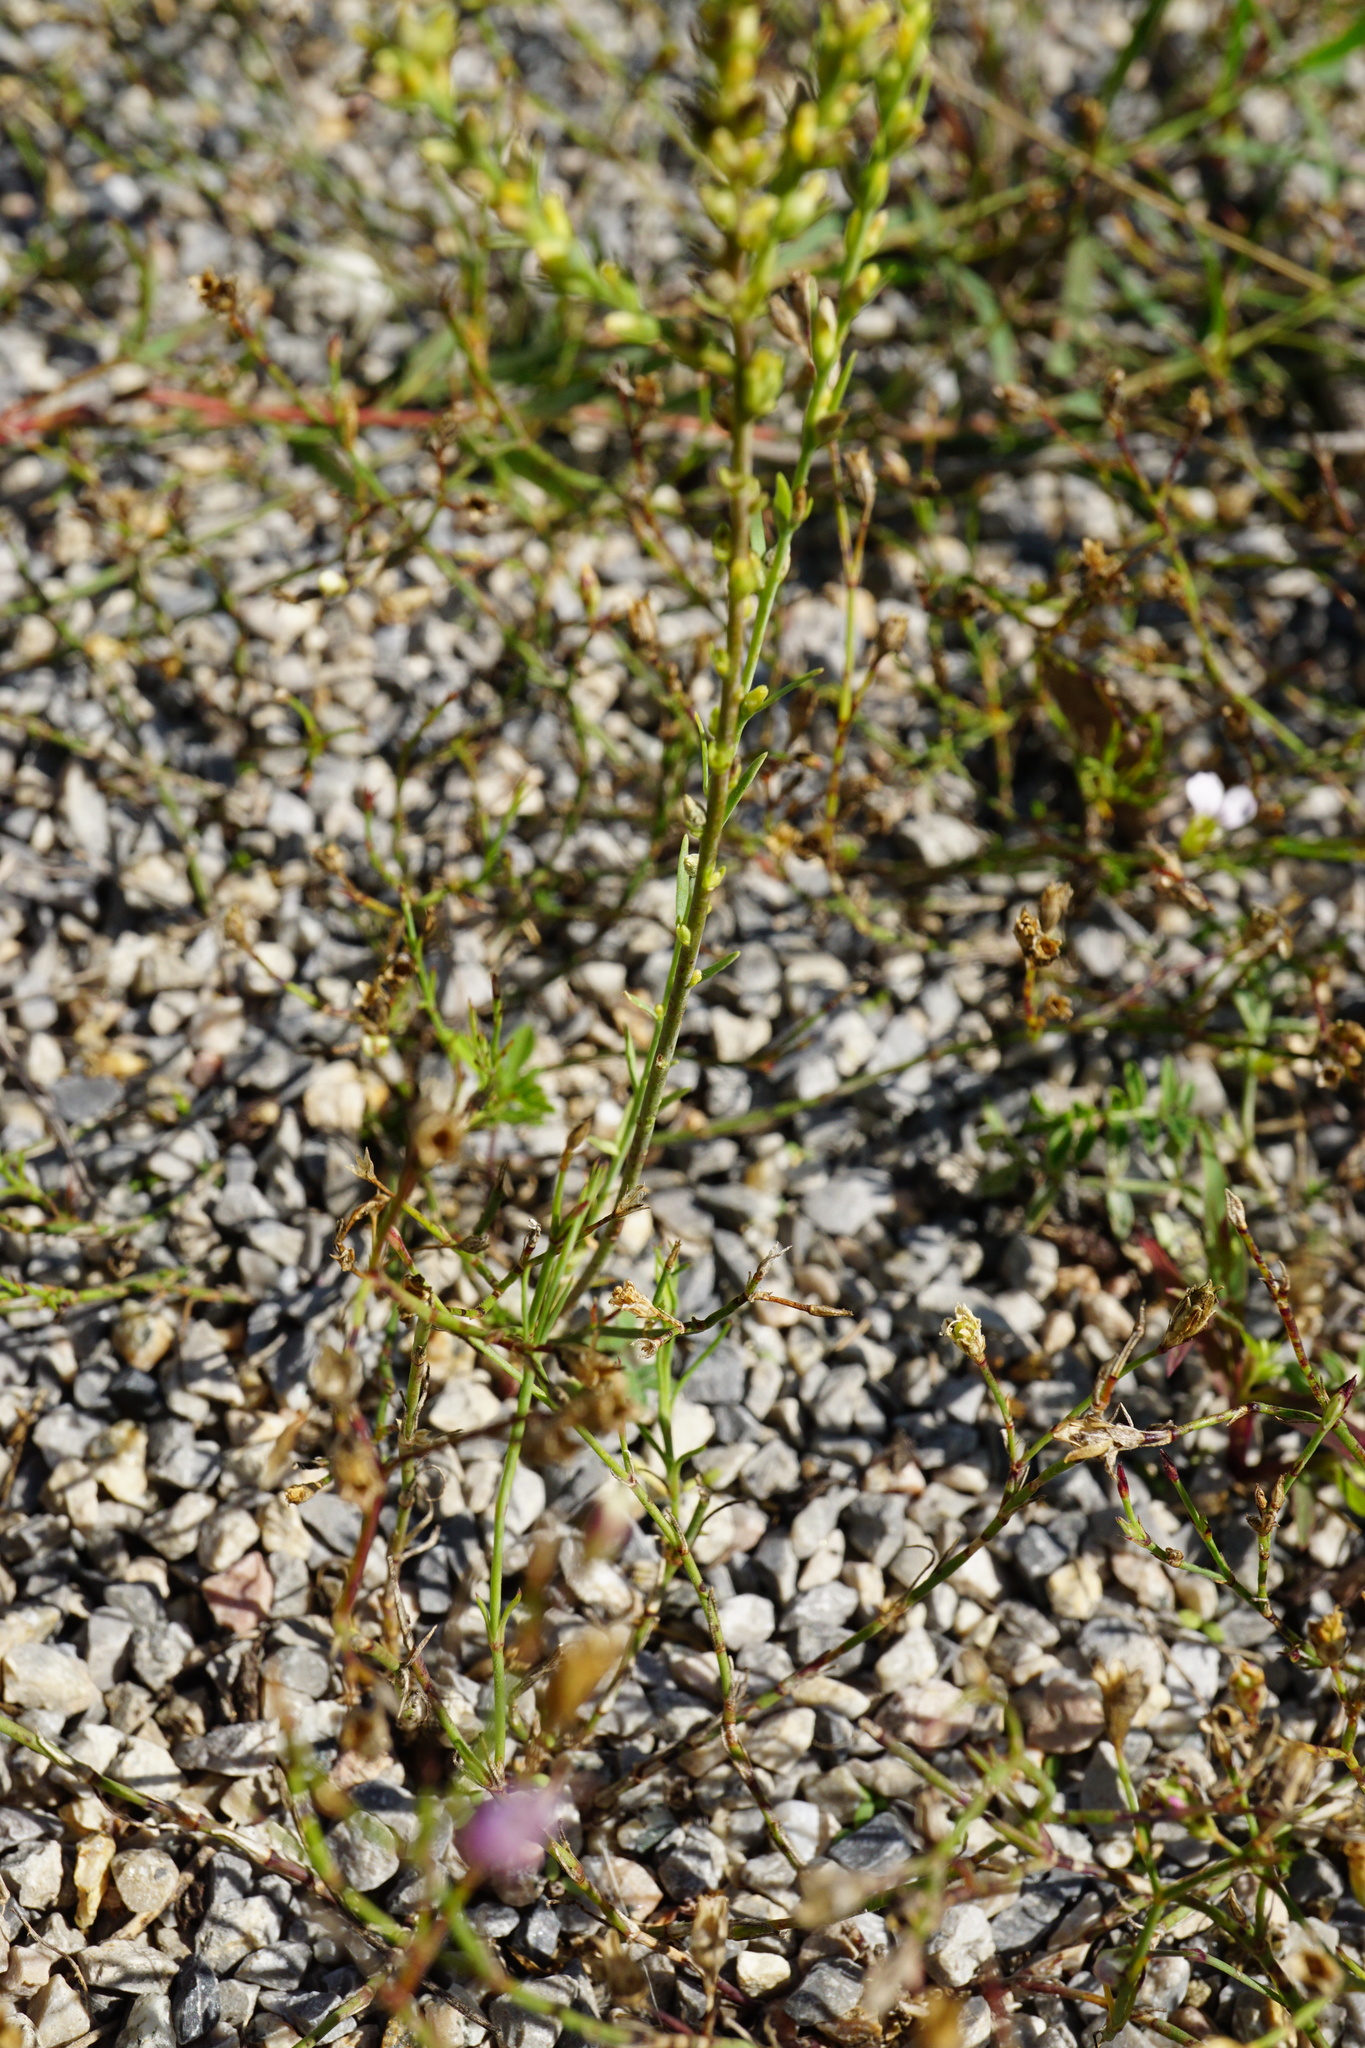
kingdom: Plantae
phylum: Tracheophyta
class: Magnoliopsida
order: Malvales
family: Thymelaeaceae
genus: Thymelaea
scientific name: Thymelaea passerina
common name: Annual thymelaea
